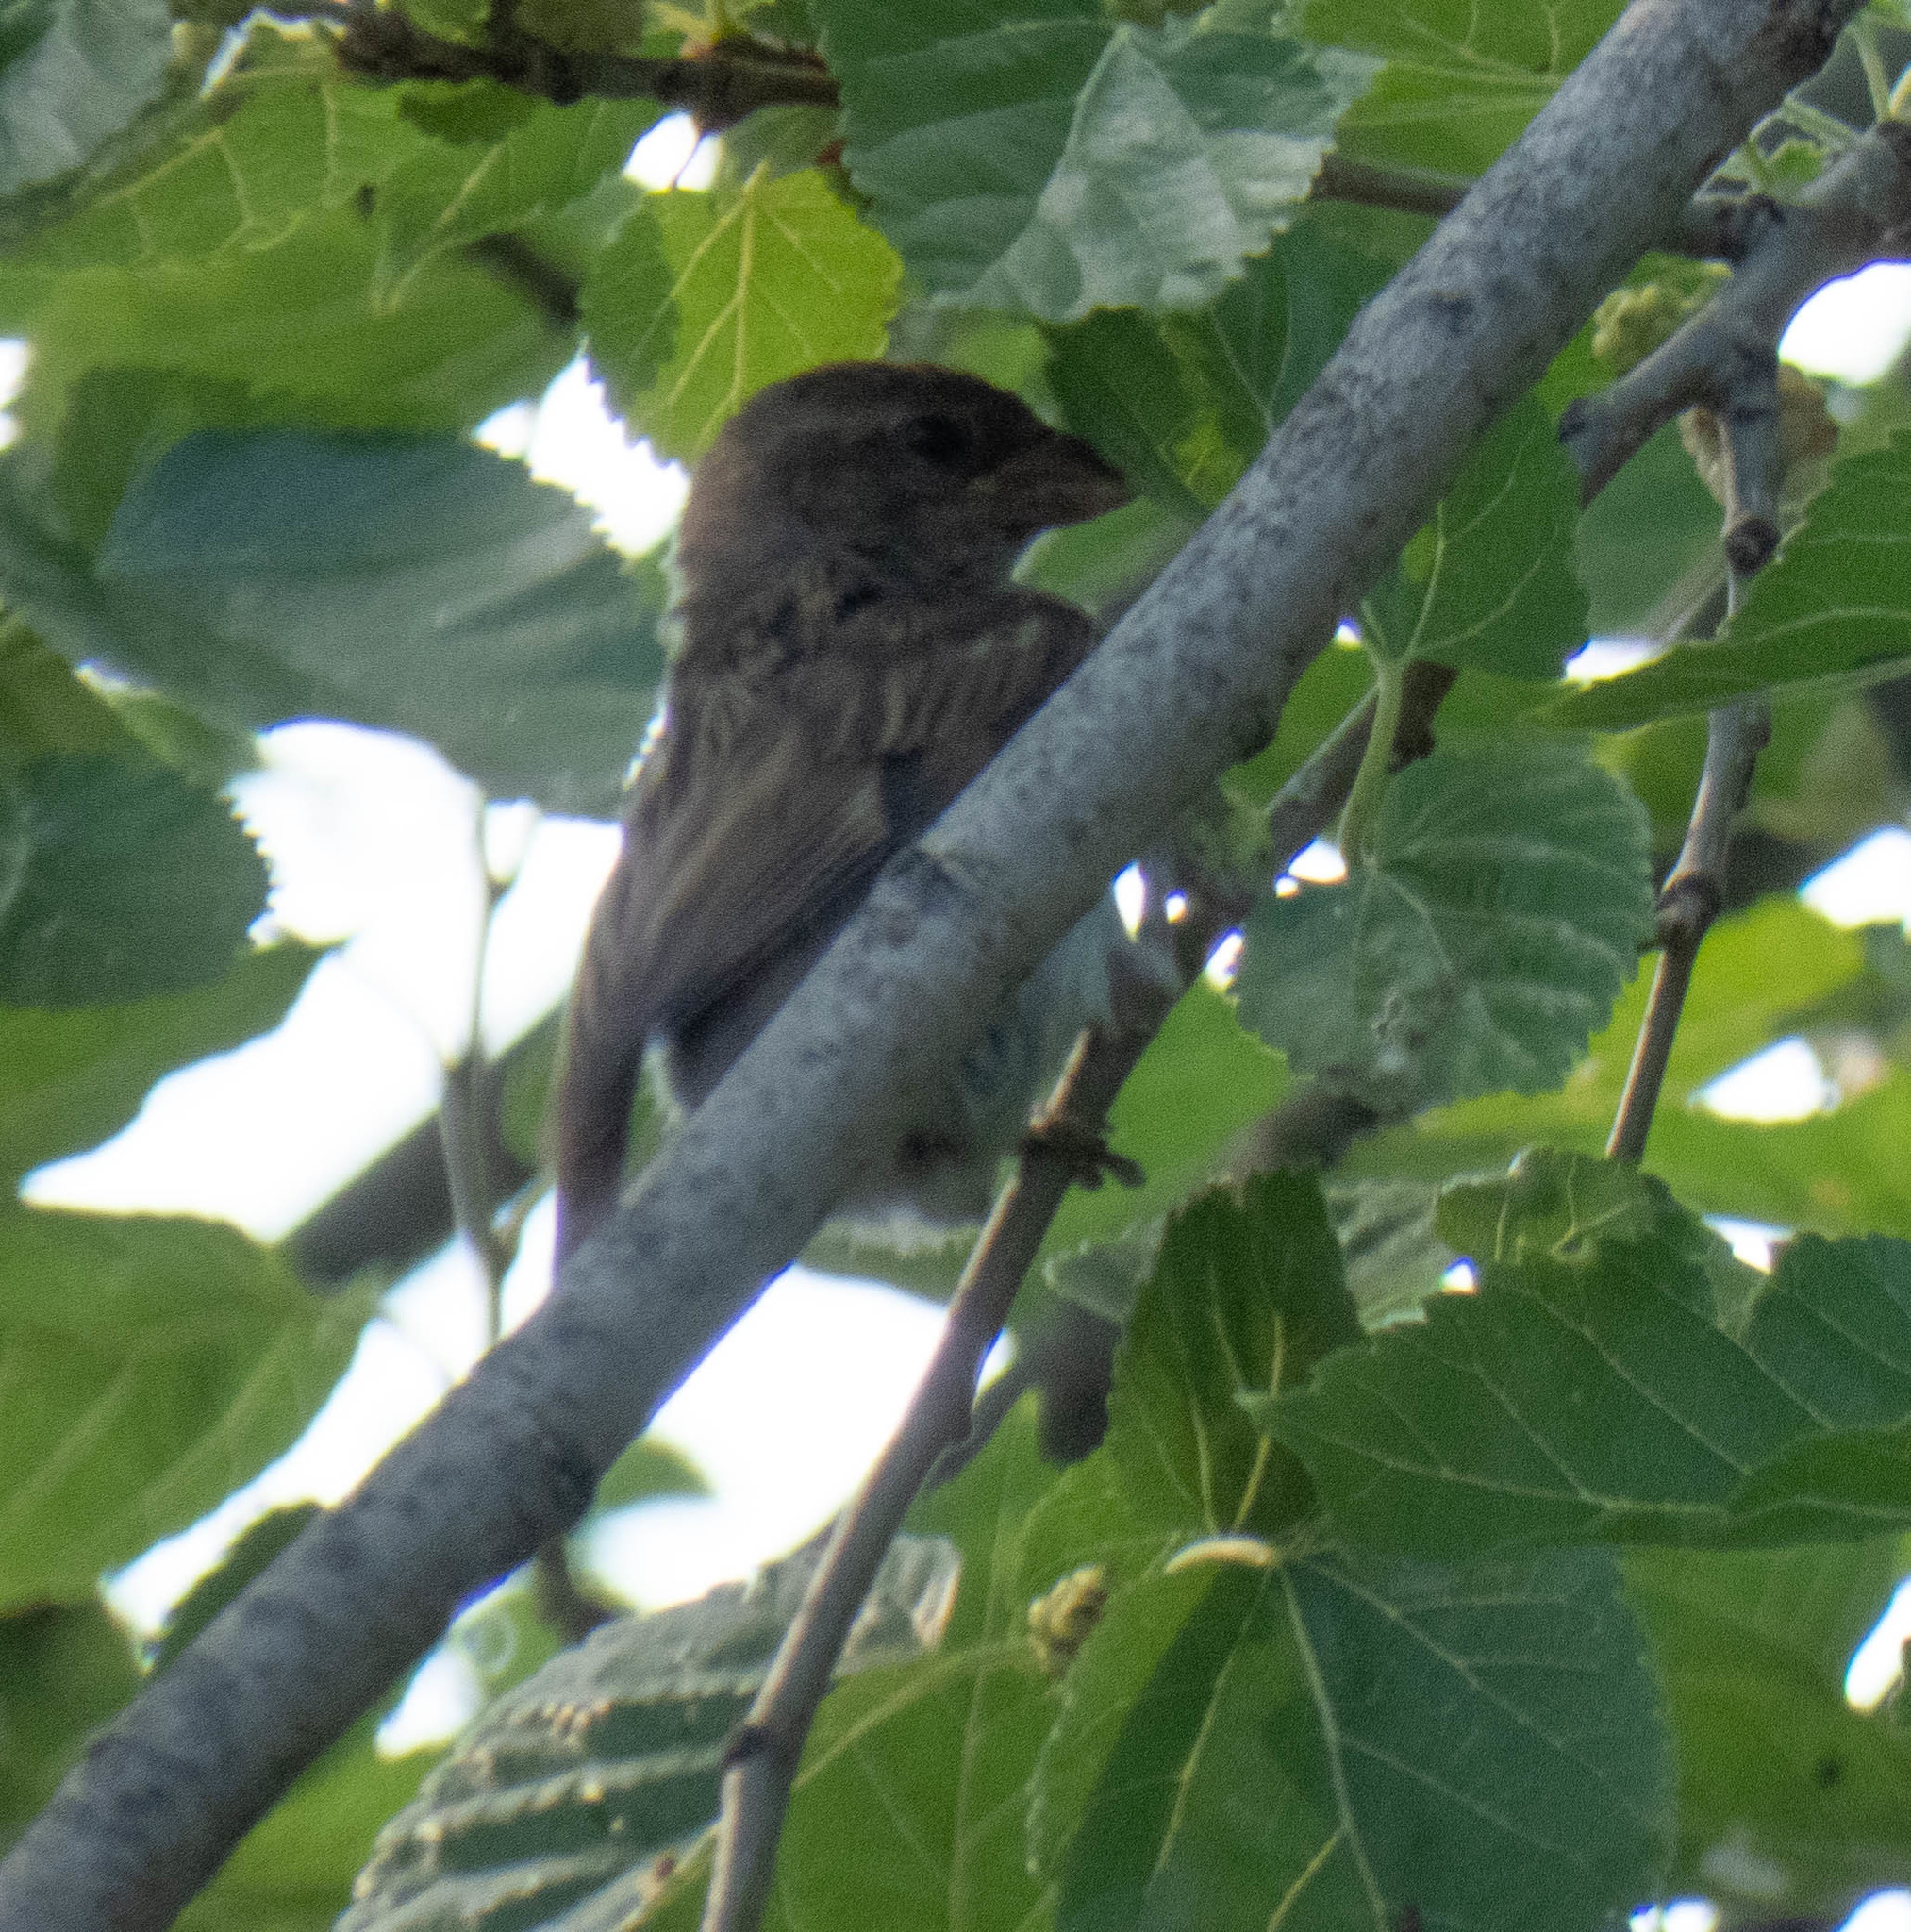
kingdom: Animalia
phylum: Chordata
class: Aves
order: Passeriformes
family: Passeridae
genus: Passer
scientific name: Passer domesticus
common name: House sparrow
